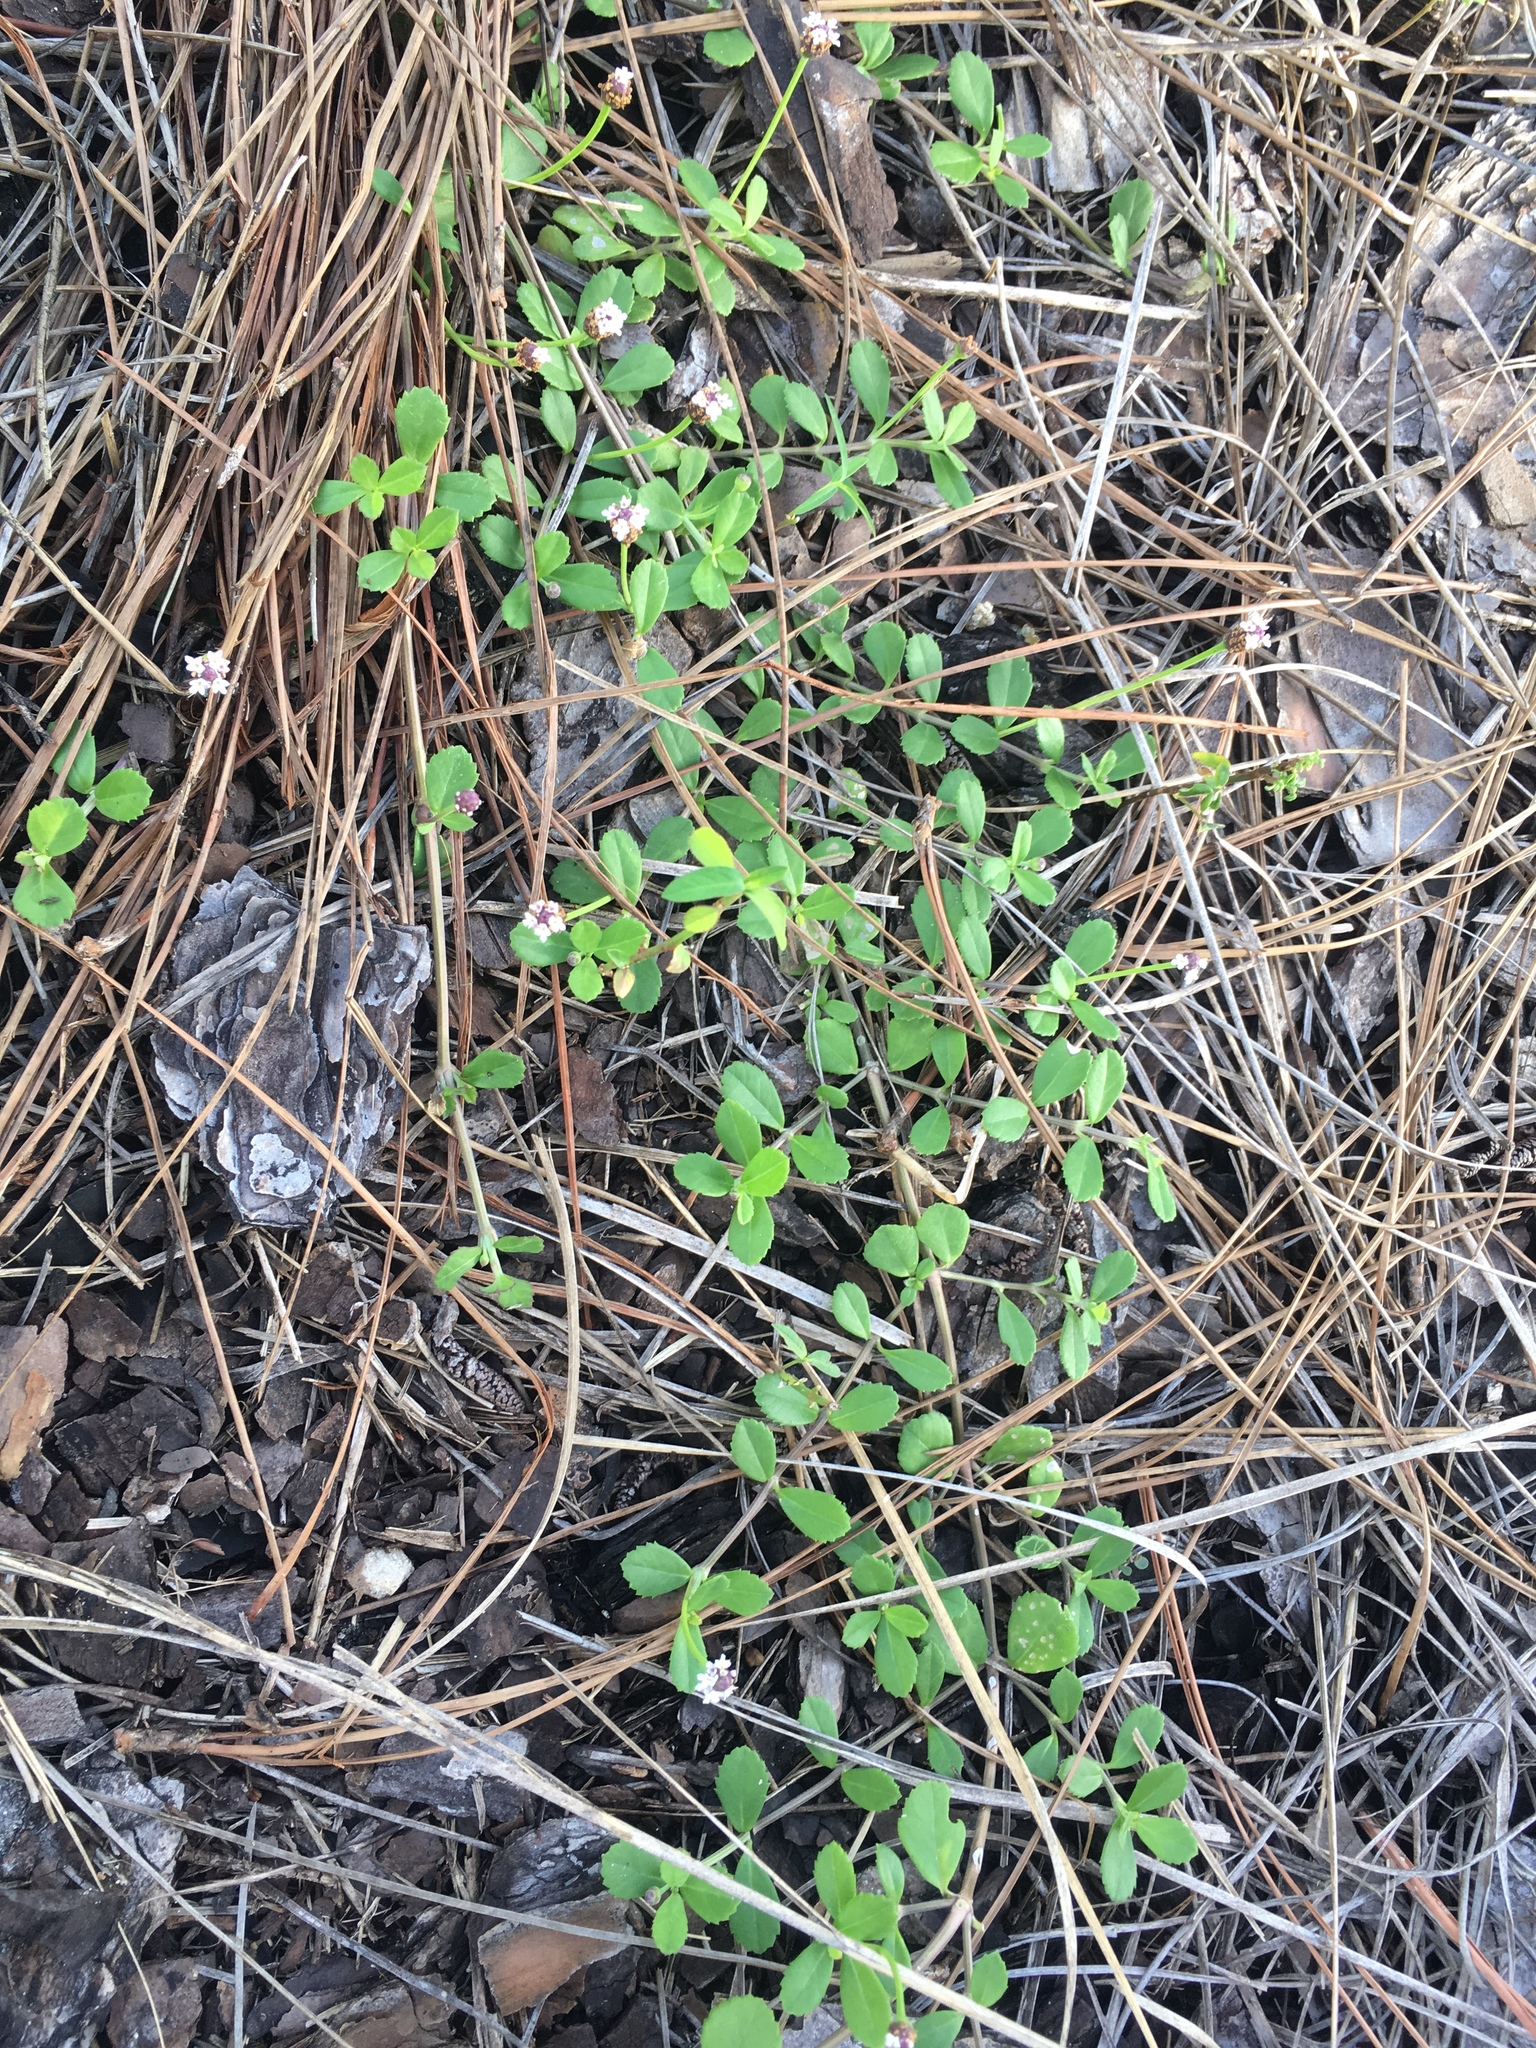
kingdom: Plantae
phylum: Tracheophyta
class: Magnoliopsida
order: Lamiales
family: Verbenaceae
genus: Phyla
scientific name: Phyla nodiflora
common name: Frogfruit
